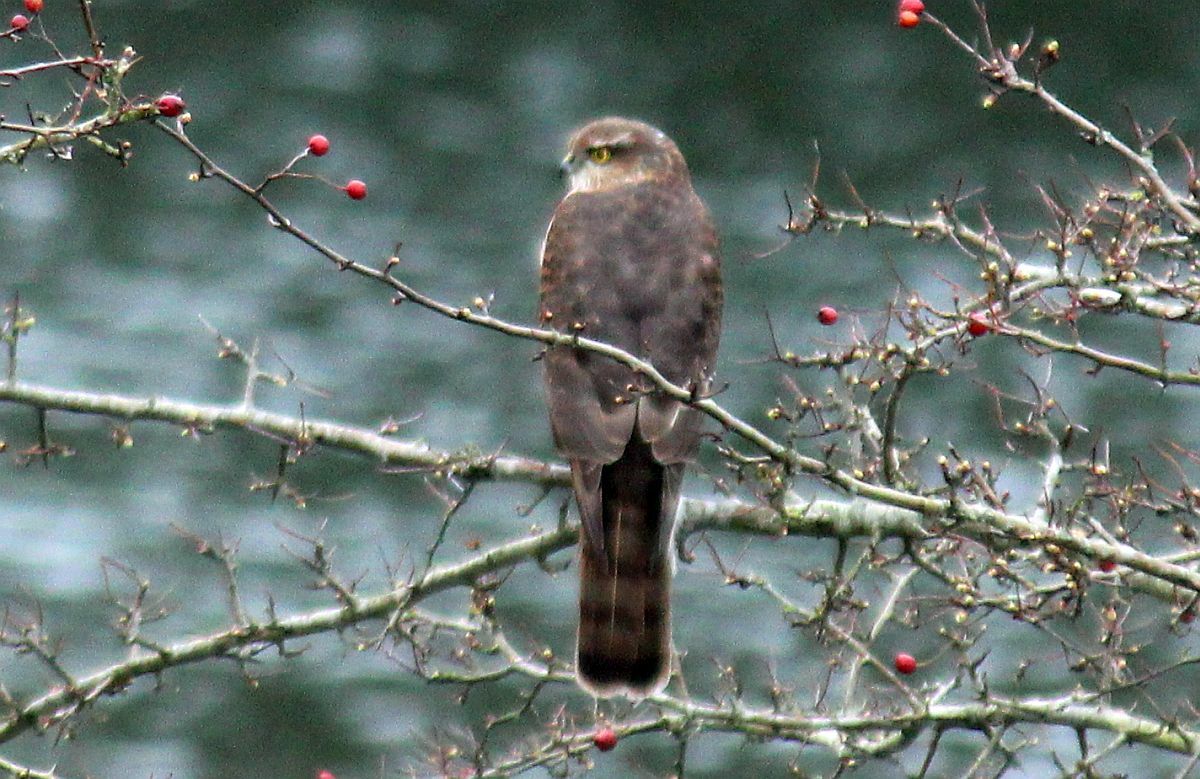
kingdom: Animalia
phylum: Chordata
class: Aves
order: Accipitriformes
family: Accipitridae
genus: Accipiter
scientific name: Accipiter nisus
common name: Eurasian sparrowhawk
